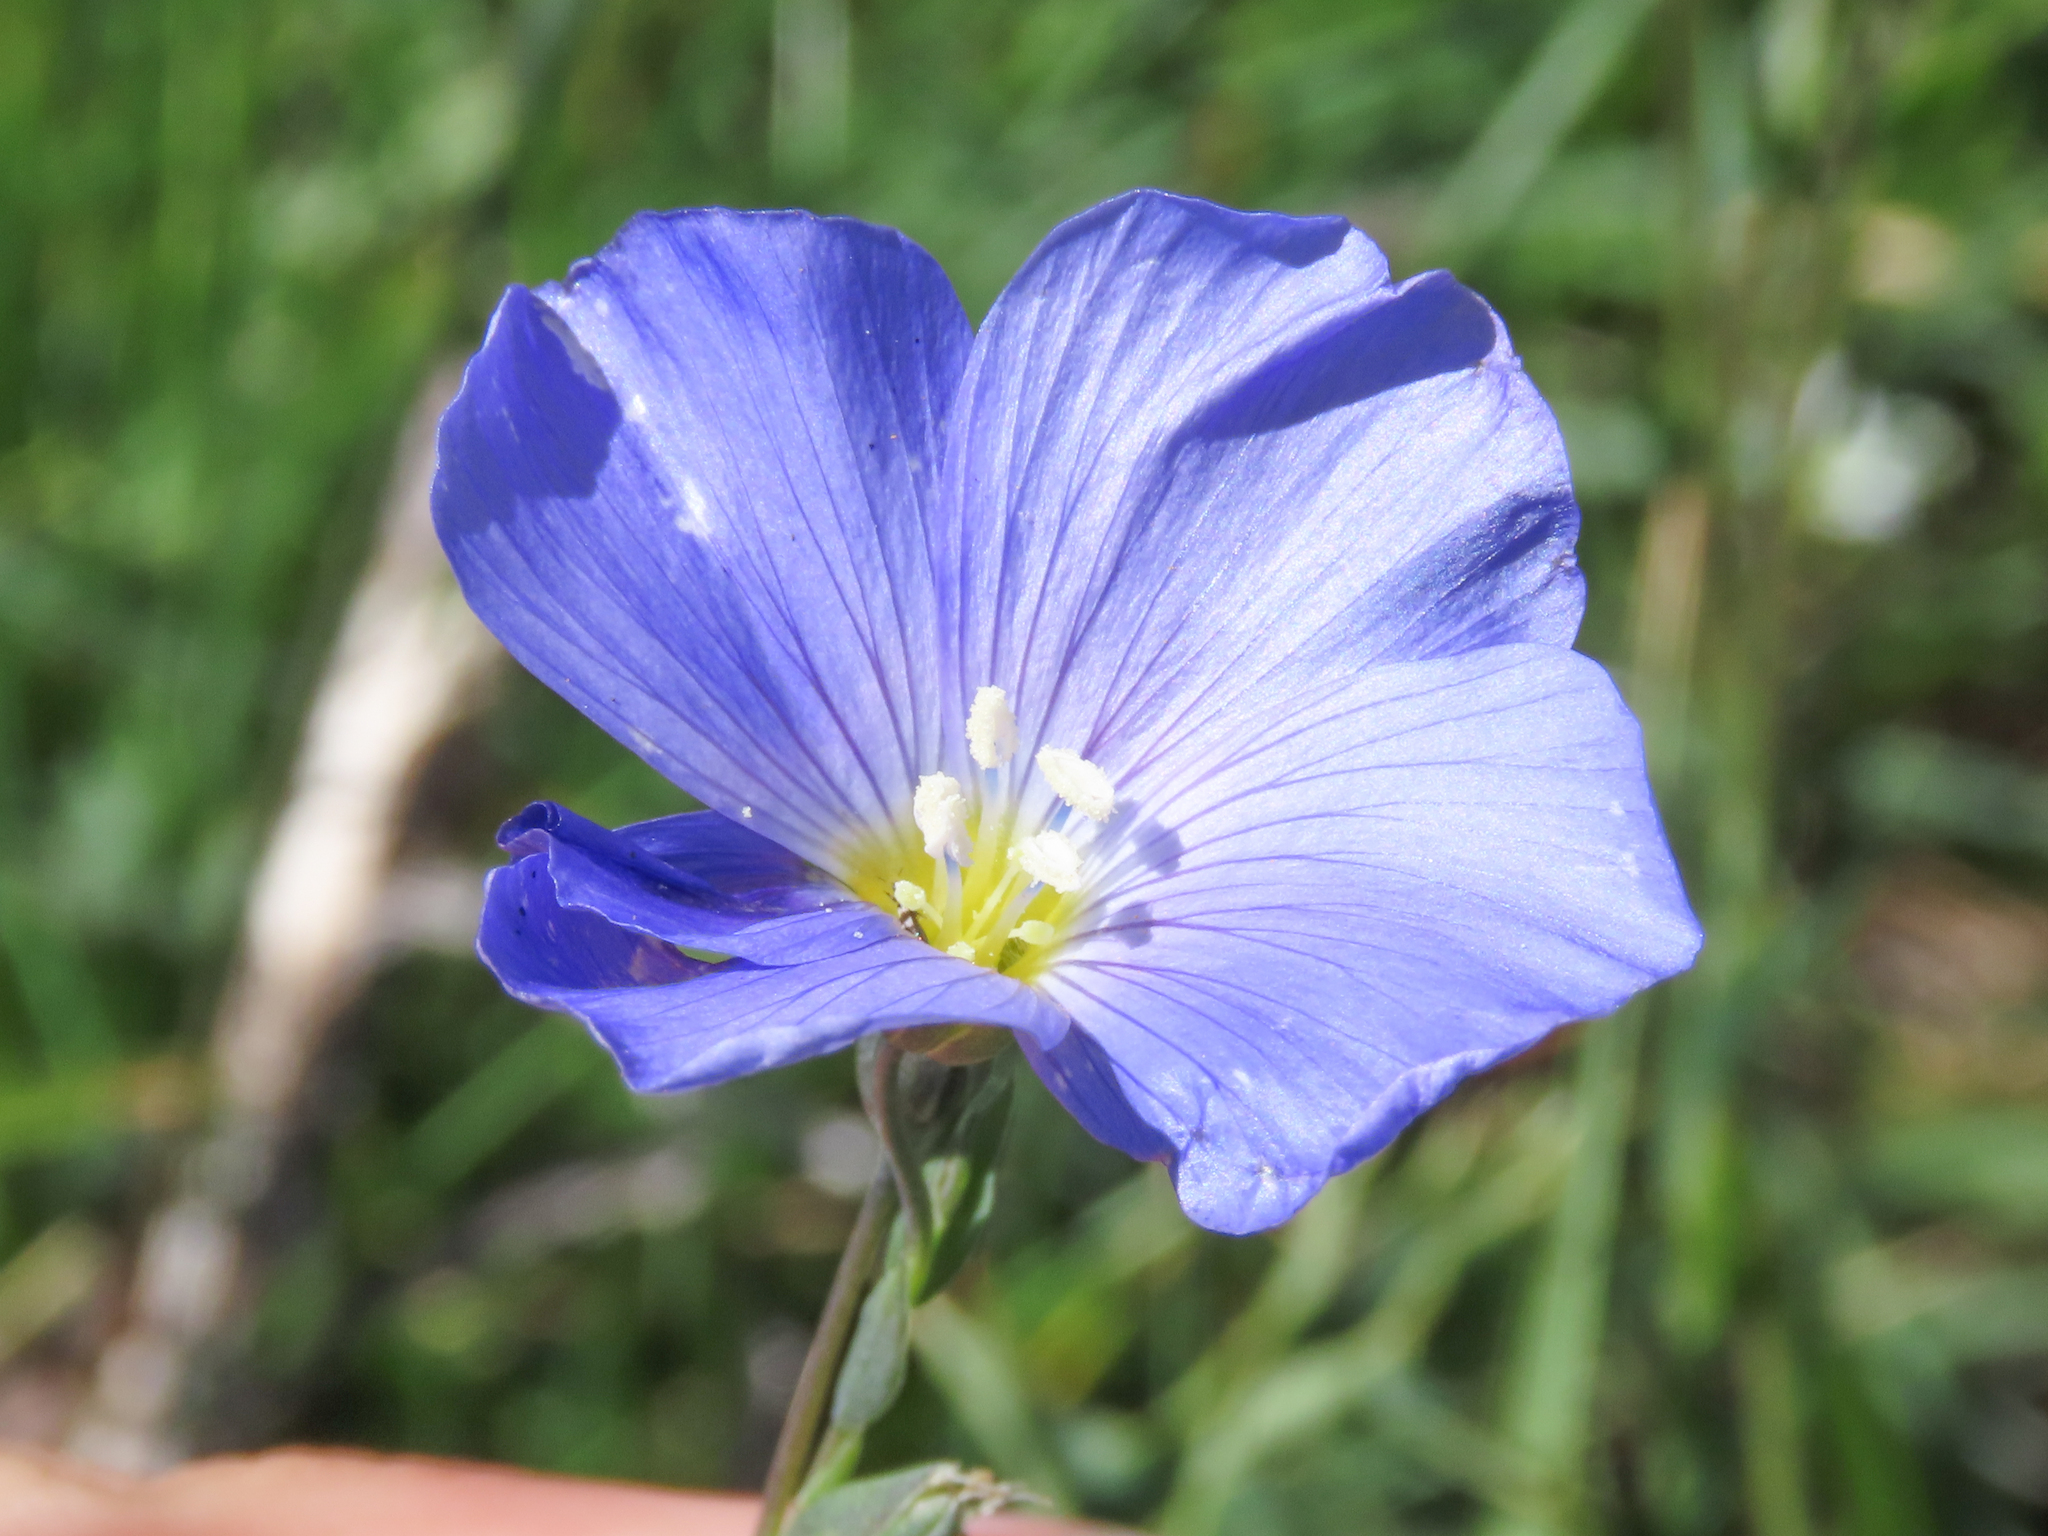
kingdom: Plantae
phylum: Tracheophyta
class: Magnoliopsida
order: Malpighiales
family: Linaceae
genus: Linum
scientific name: Linum alpinum
